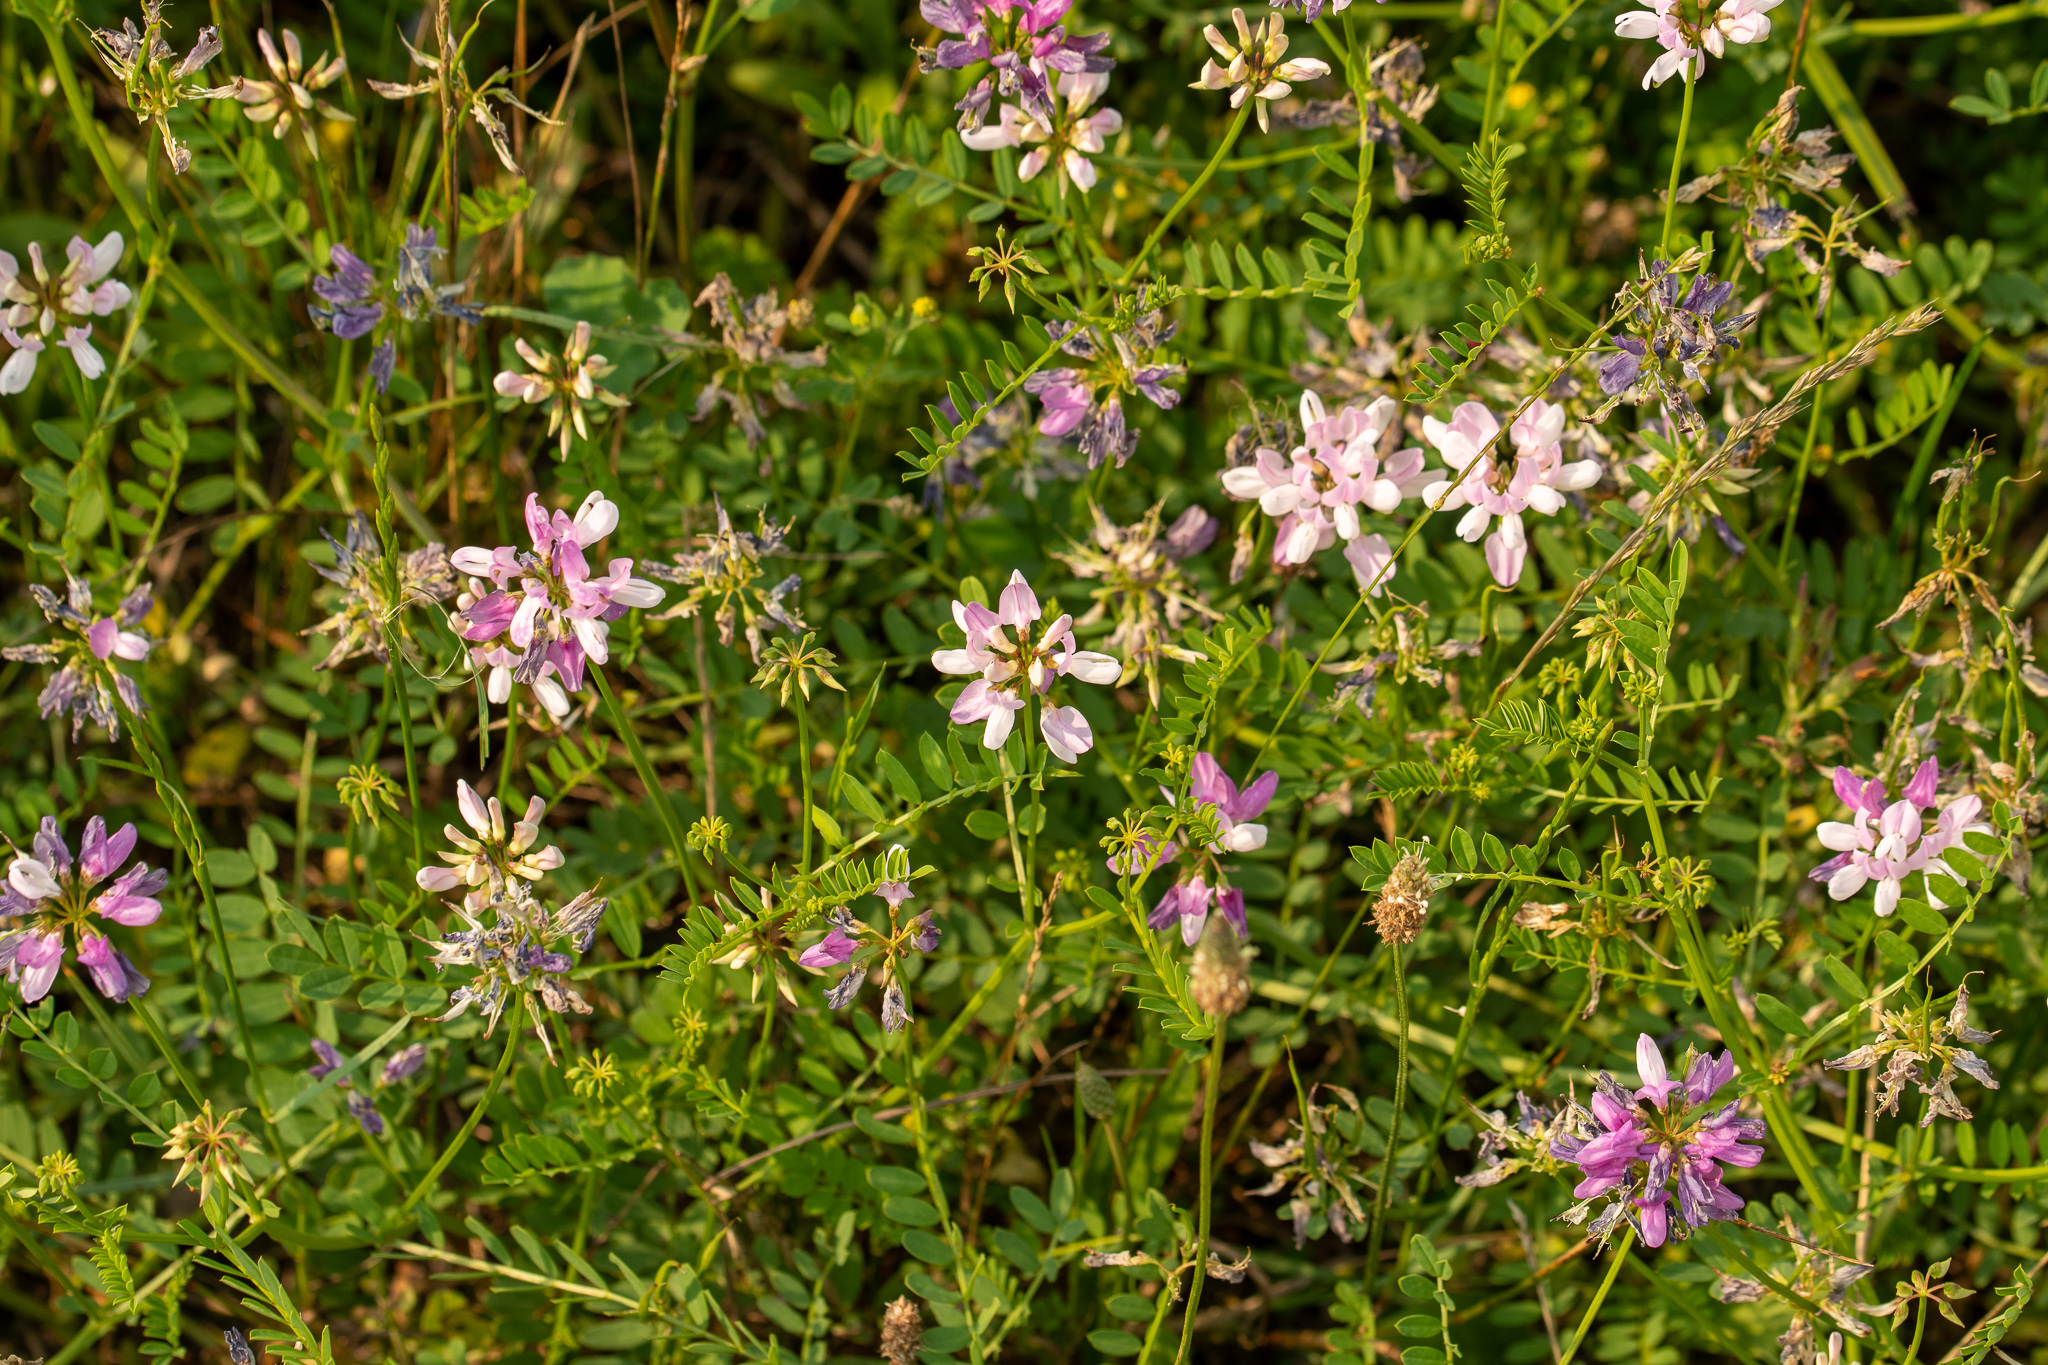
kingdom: Plantae
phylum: Tracheophyta
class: Magnoliopsida
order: Fabales
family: Fabaceae
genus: Coronilla
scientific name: Coronilla varia
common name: Crownvetch
